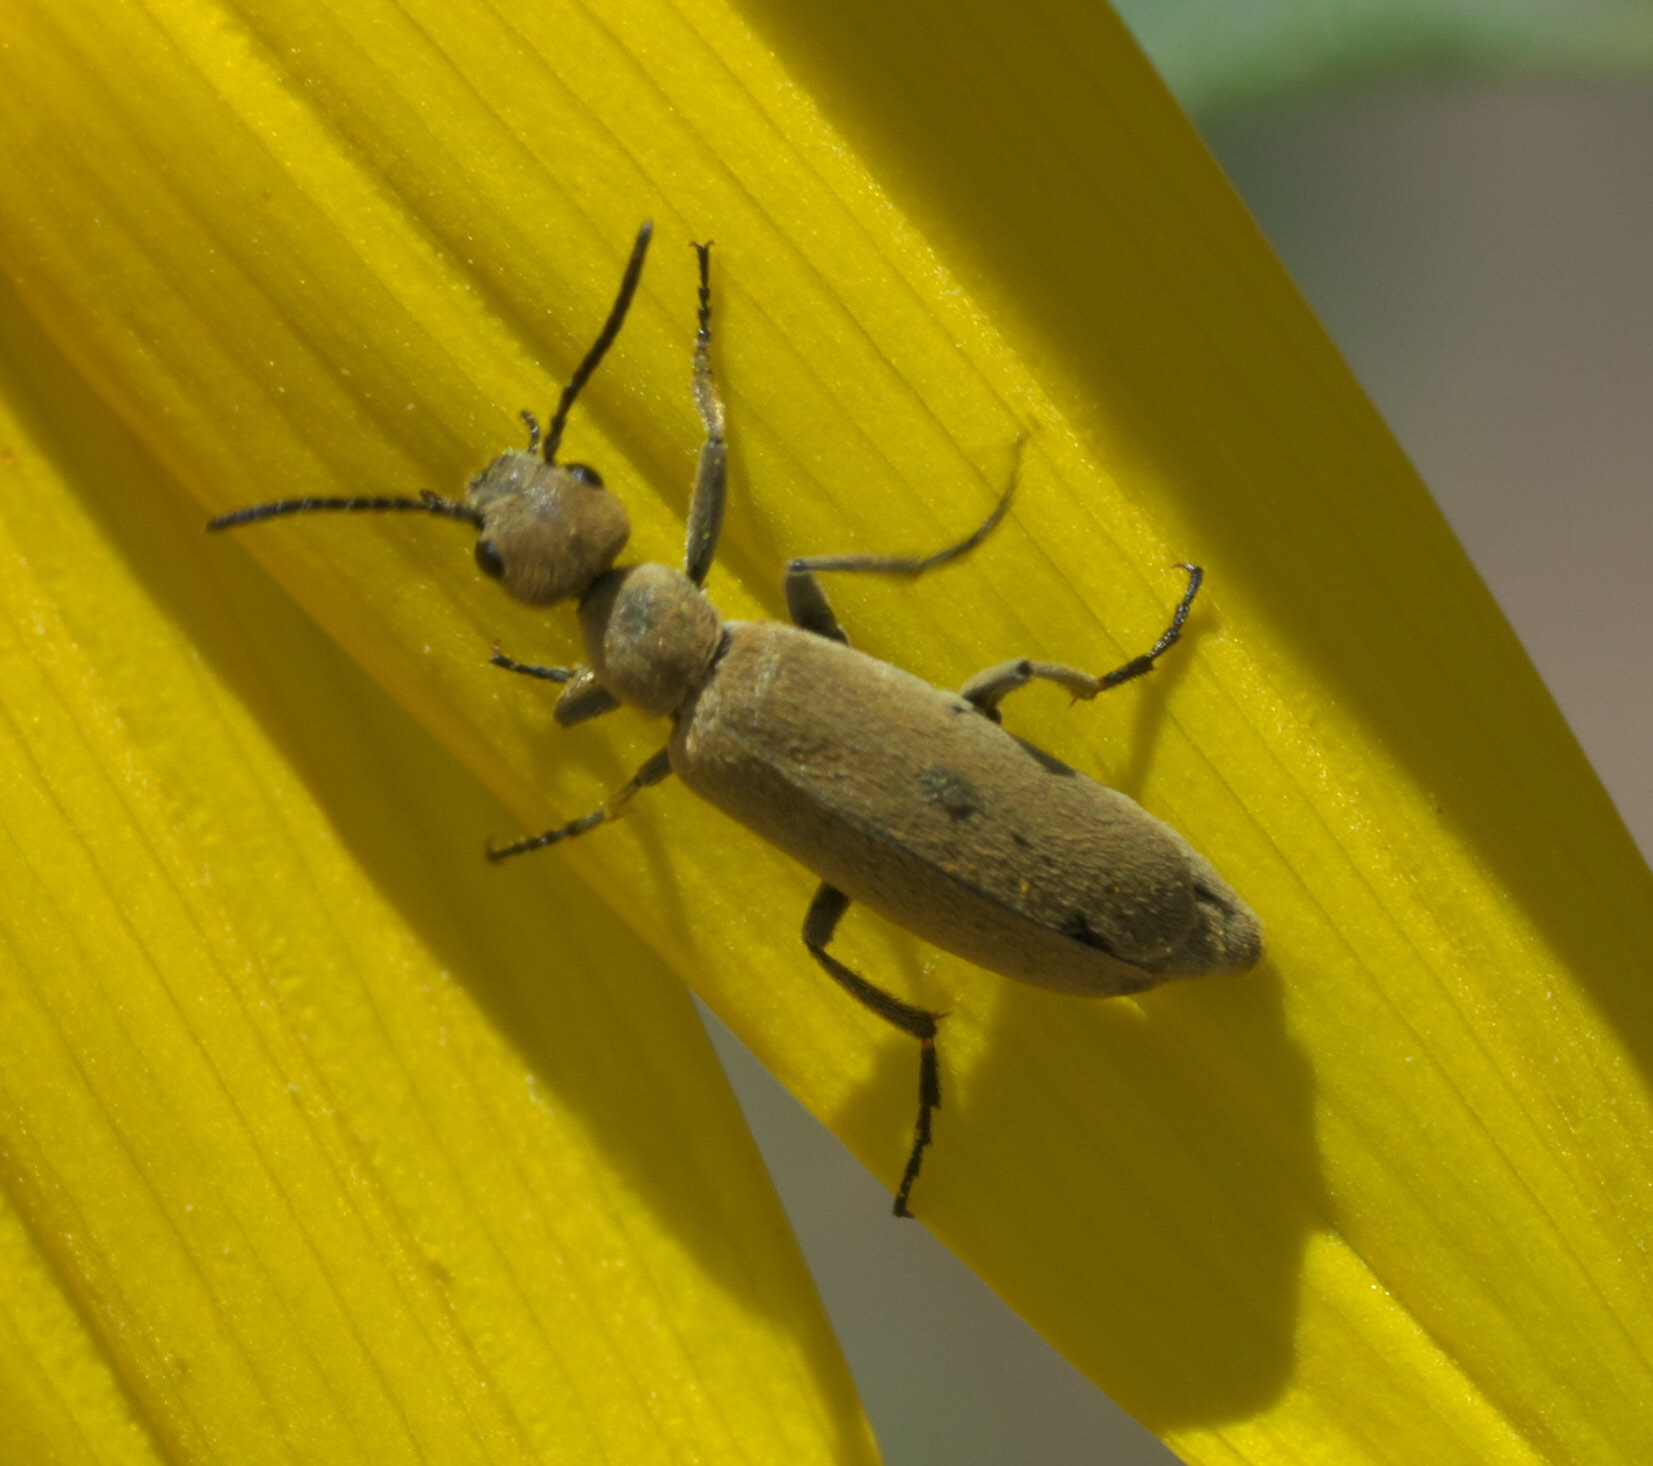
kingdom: Animalia
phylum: Arthropoda
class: Insecta
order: Coleoptera
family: Meloidae
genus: Epicauta
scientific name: Epicauta ferruginea
